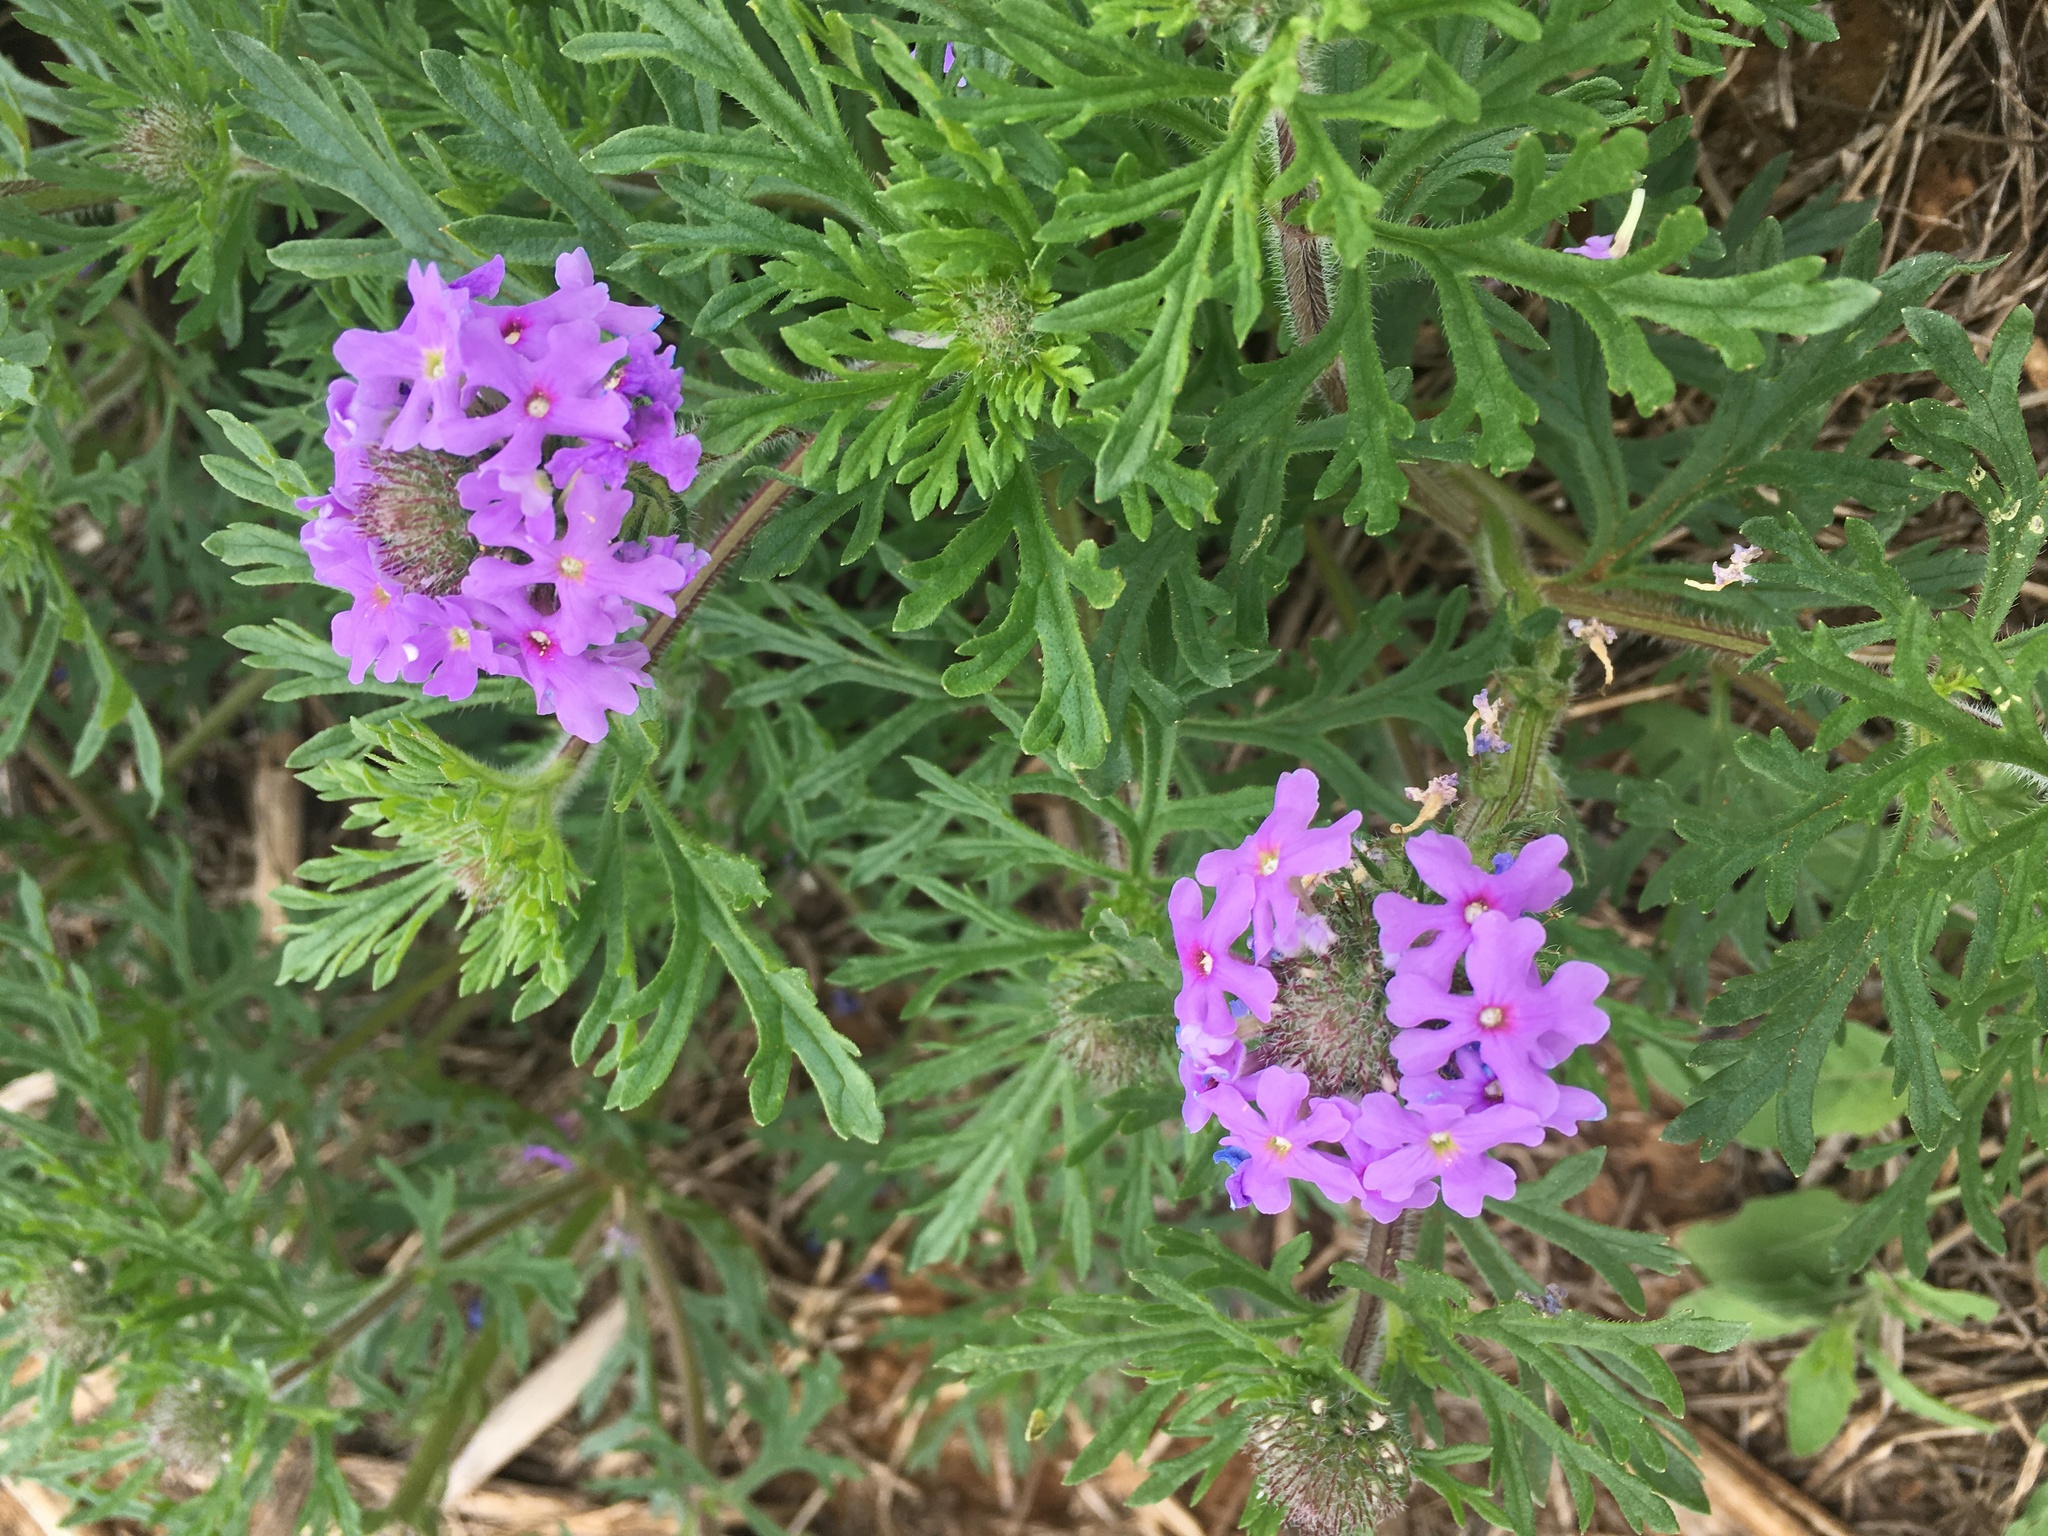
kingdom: Plantae
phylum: Tracheophyta
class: Magnoliopsida
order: Lamiales
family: Verbenaceae
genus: Verbena
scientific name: Verbena bipinnatifida
